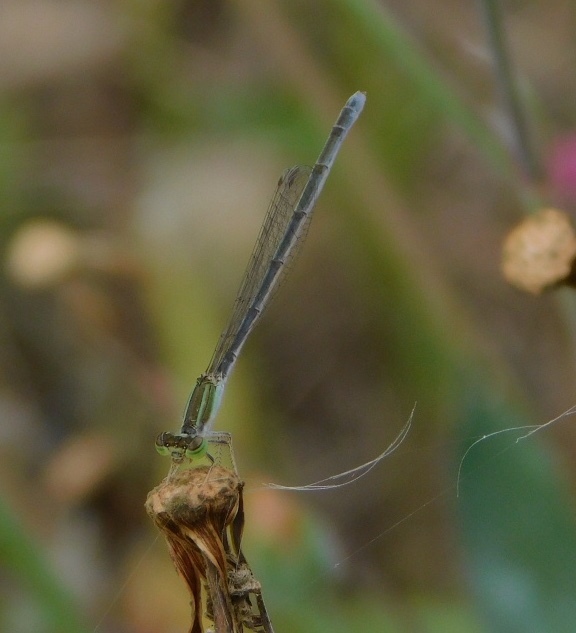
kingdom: Animalia
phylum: Arthropoda
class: Insecta
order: Odonata
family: Coenagrionidae
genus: Ischnura
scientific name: Ischnura hastata
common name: Citrine forktail
